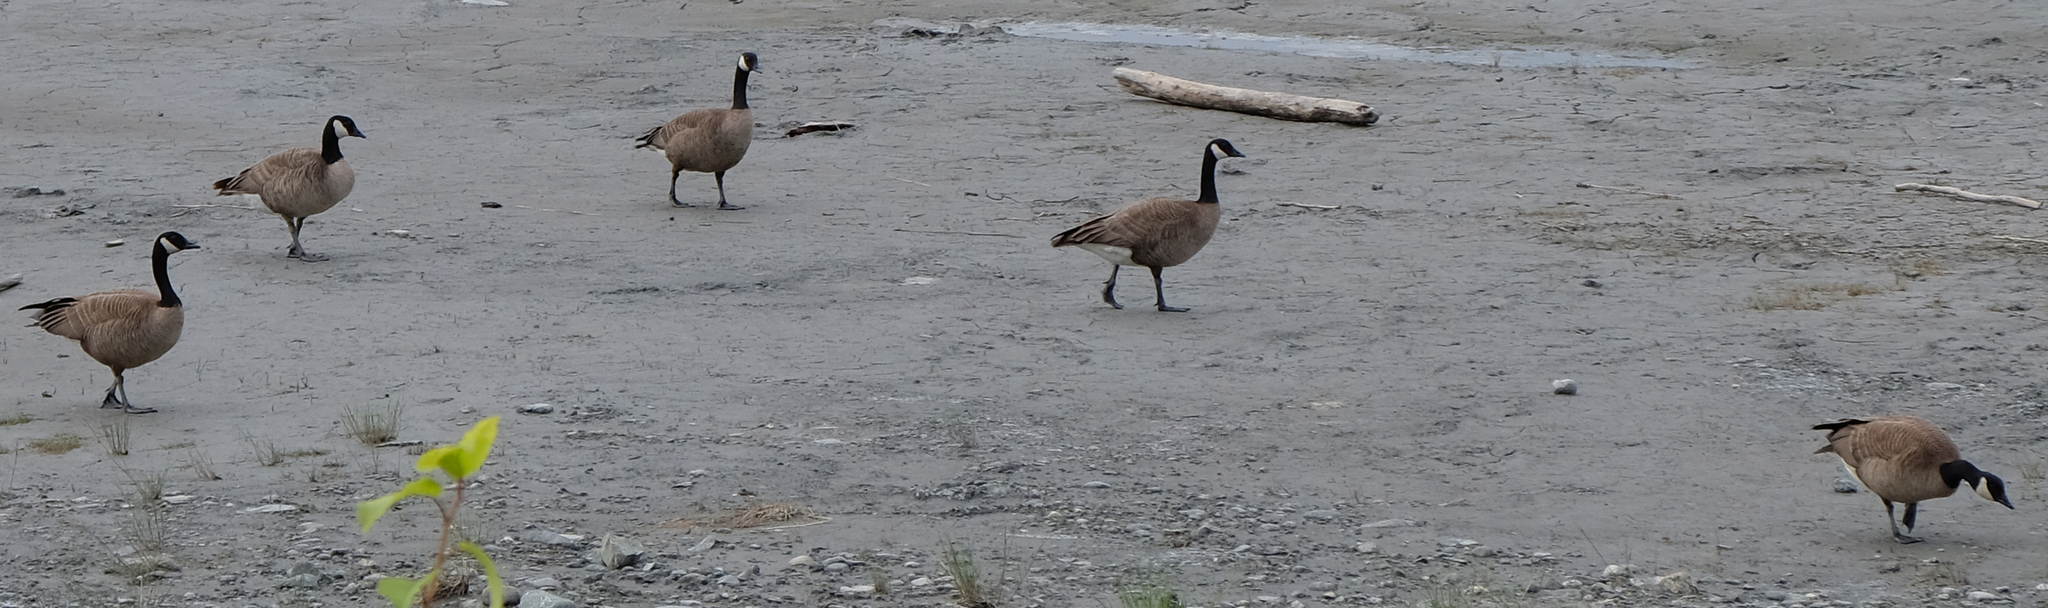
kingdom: Animalia
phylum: Chordata
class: Aves
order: Anseriformes
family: Anatidae
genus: Branta
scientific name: Branta canadensis
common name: Canada goose
